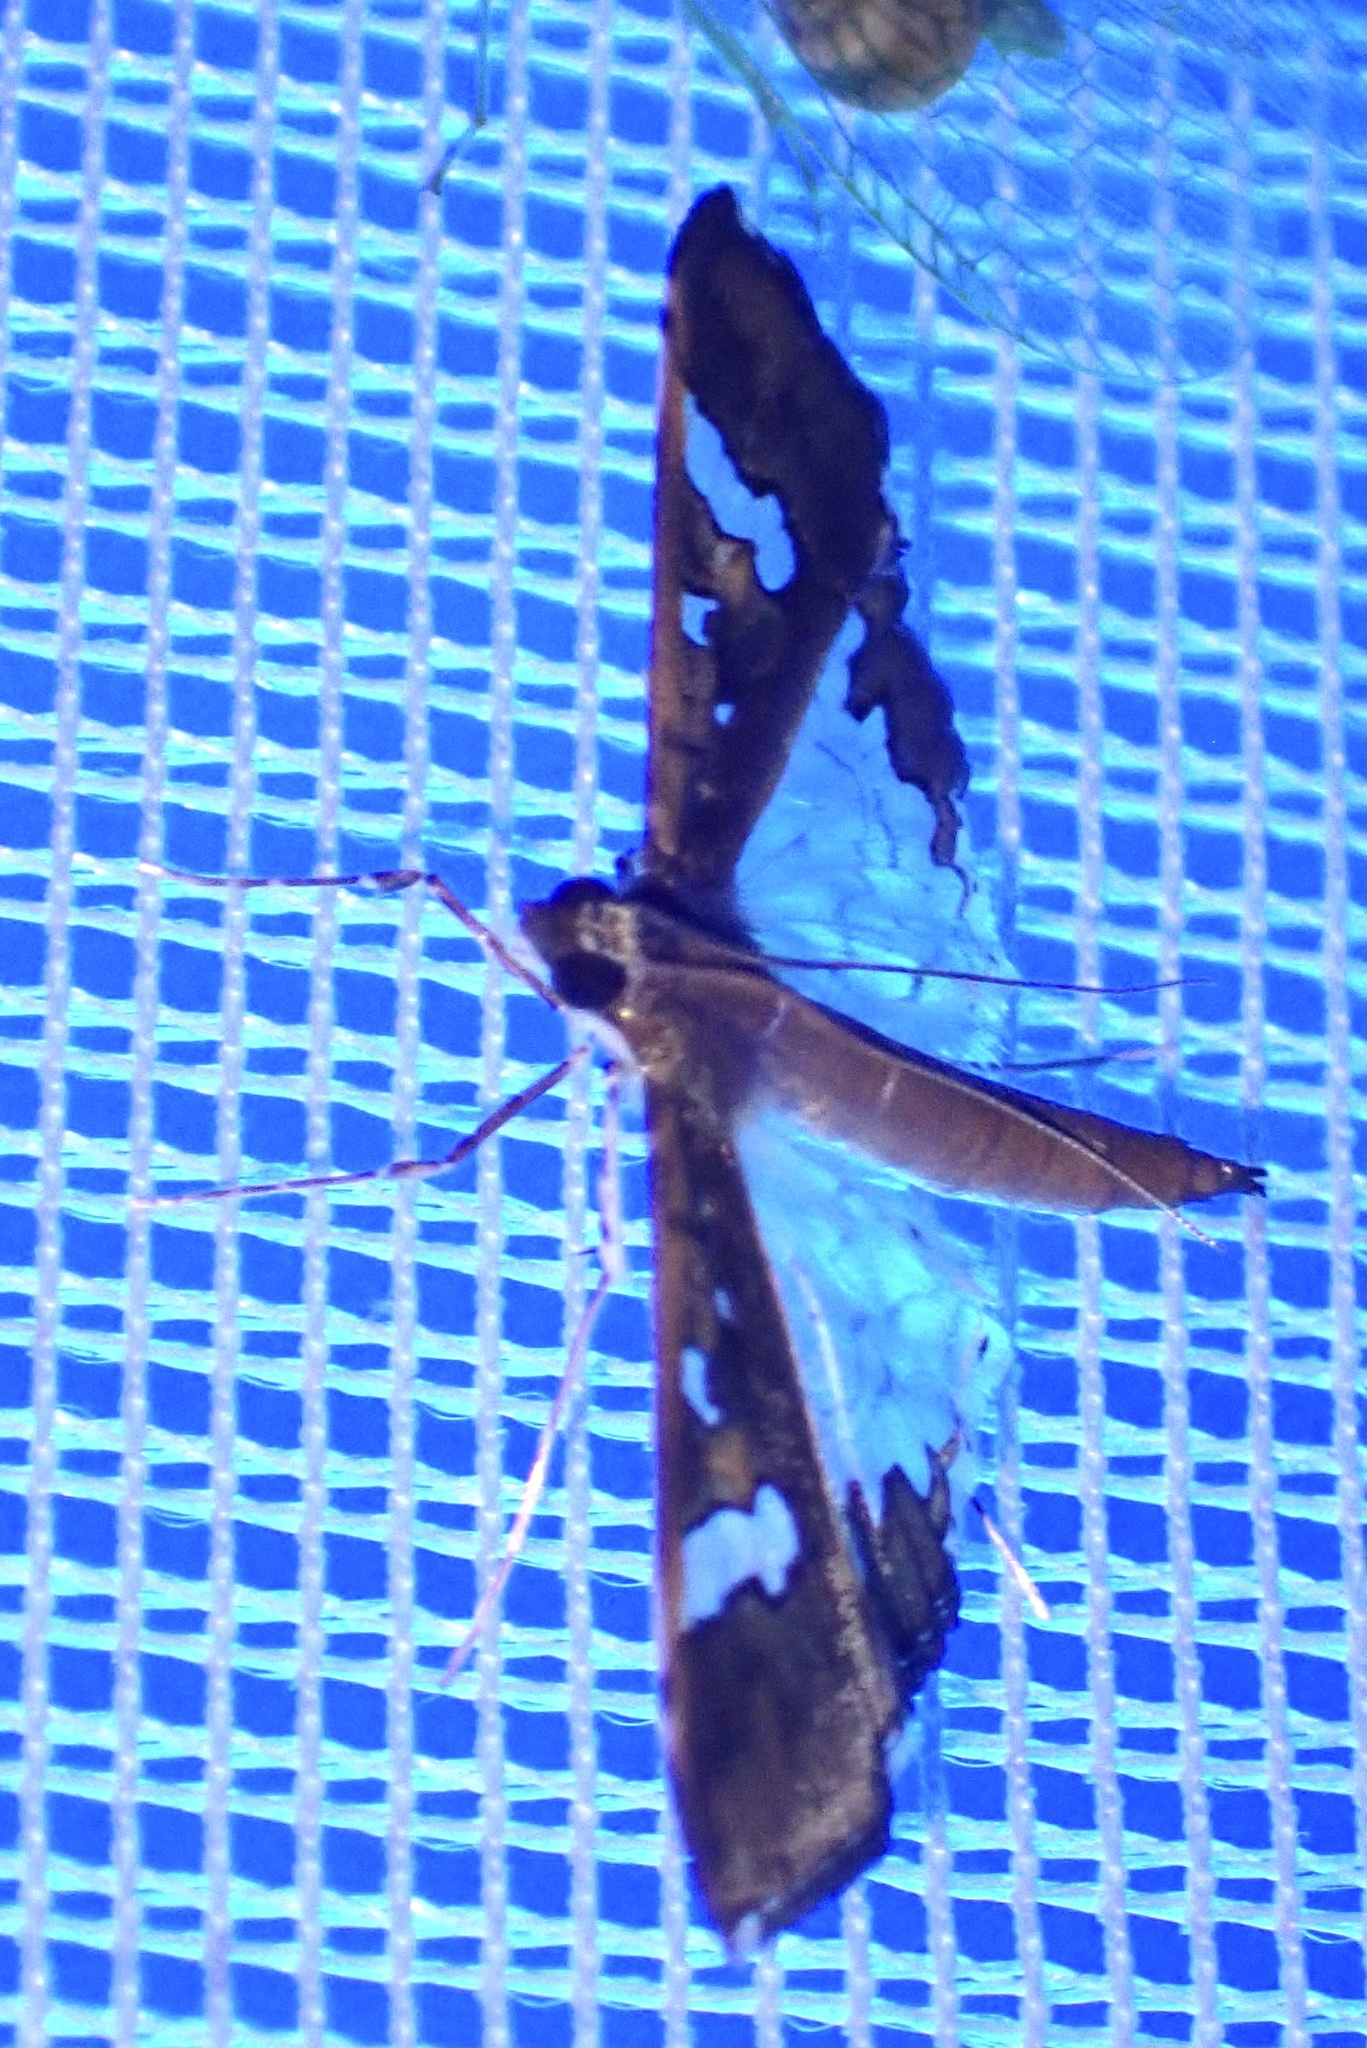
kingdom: Animalia
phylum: Arthropoda
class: Insecta
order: Lepidoptera
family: Crambidae
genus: Maruca
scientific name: Maruca vitrata
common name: Maruca pod borer
